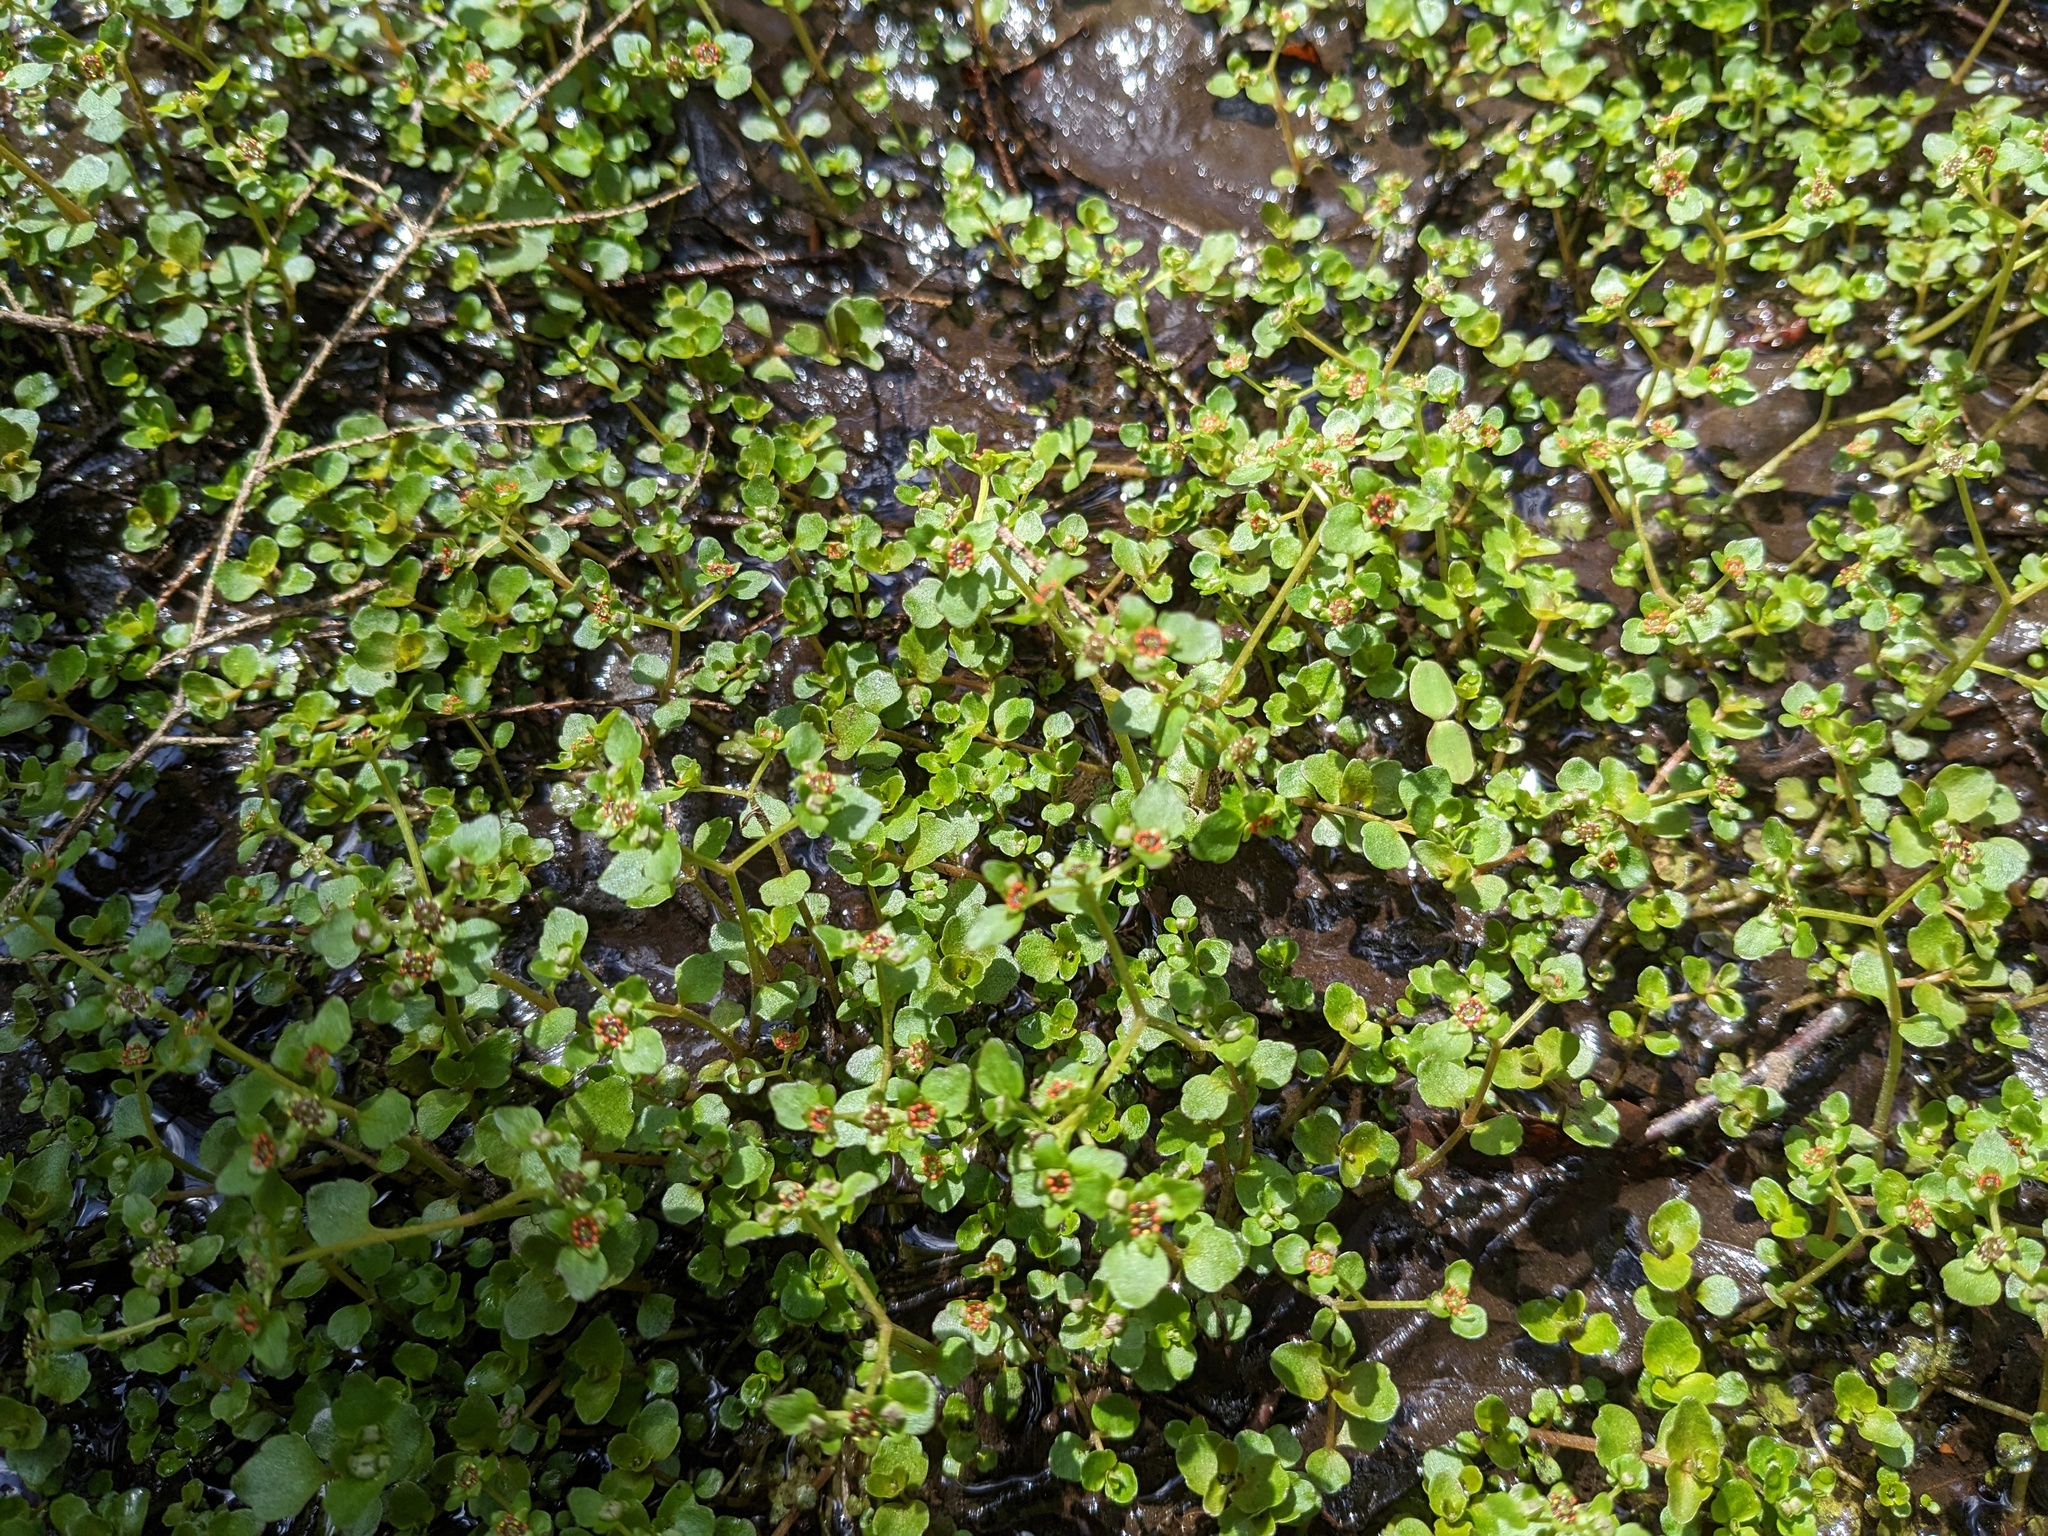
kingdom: Plantae
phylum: Tracheophyta
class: Magnoliopsida
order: Saxifragales
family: Saxifragaceae
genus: Chrysosplenium
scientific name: Chrysosplenium americanum
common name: American golden-saxifrage
